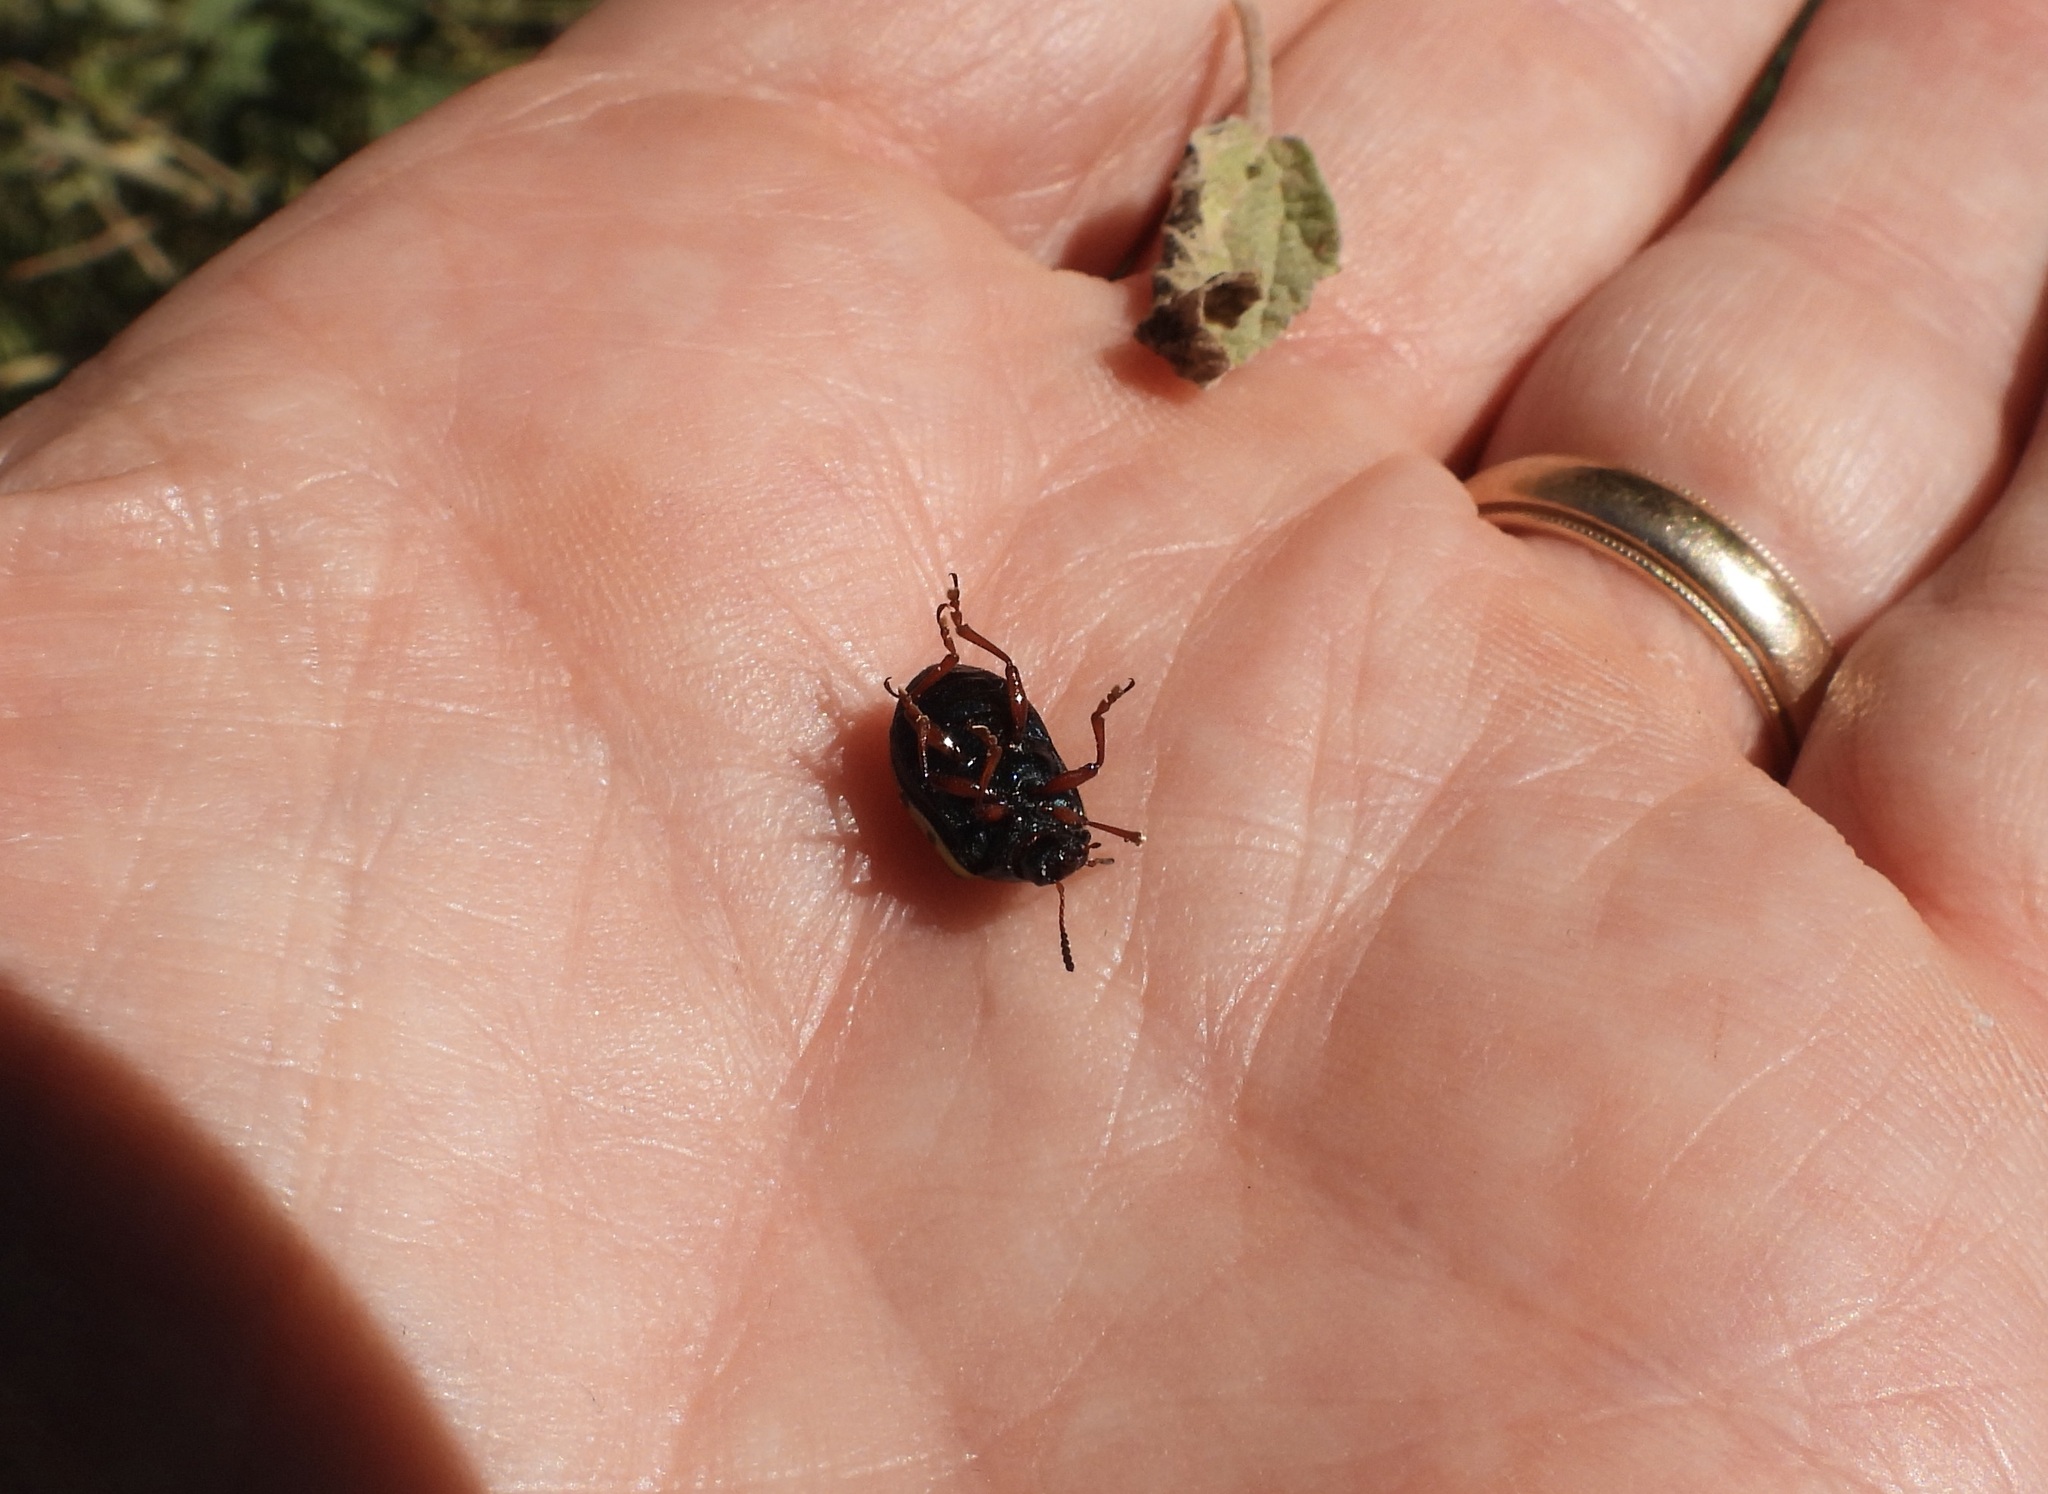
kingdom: Animalia
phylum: Arthropoda
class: Insecta
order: Coleoptera
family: Chrysomelidae
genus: Calligrapha
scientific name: Calligrapha serpentina
